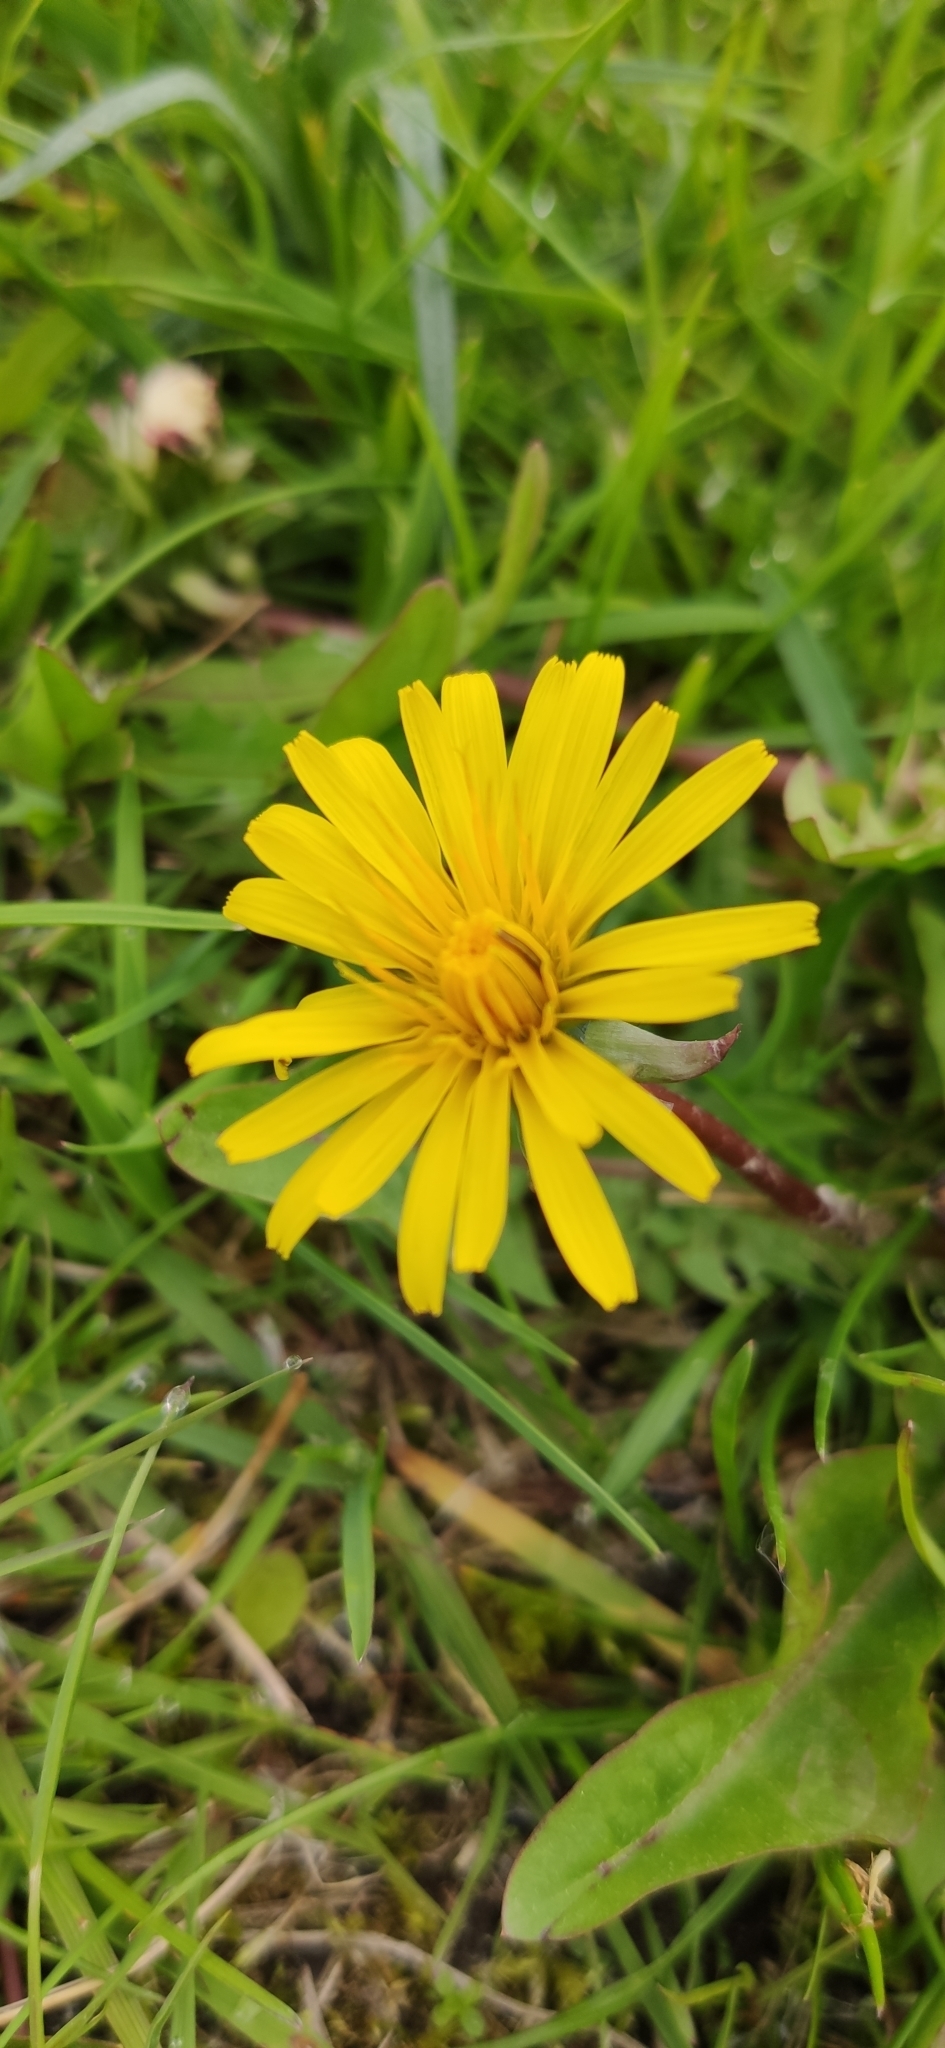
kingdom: Plantae
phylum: Tracheophyta
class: Magnoliopsida
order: Asterales
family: Asteraceae
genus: Taraxacum
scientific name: Taraxacum officinale
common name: Common dandelion
